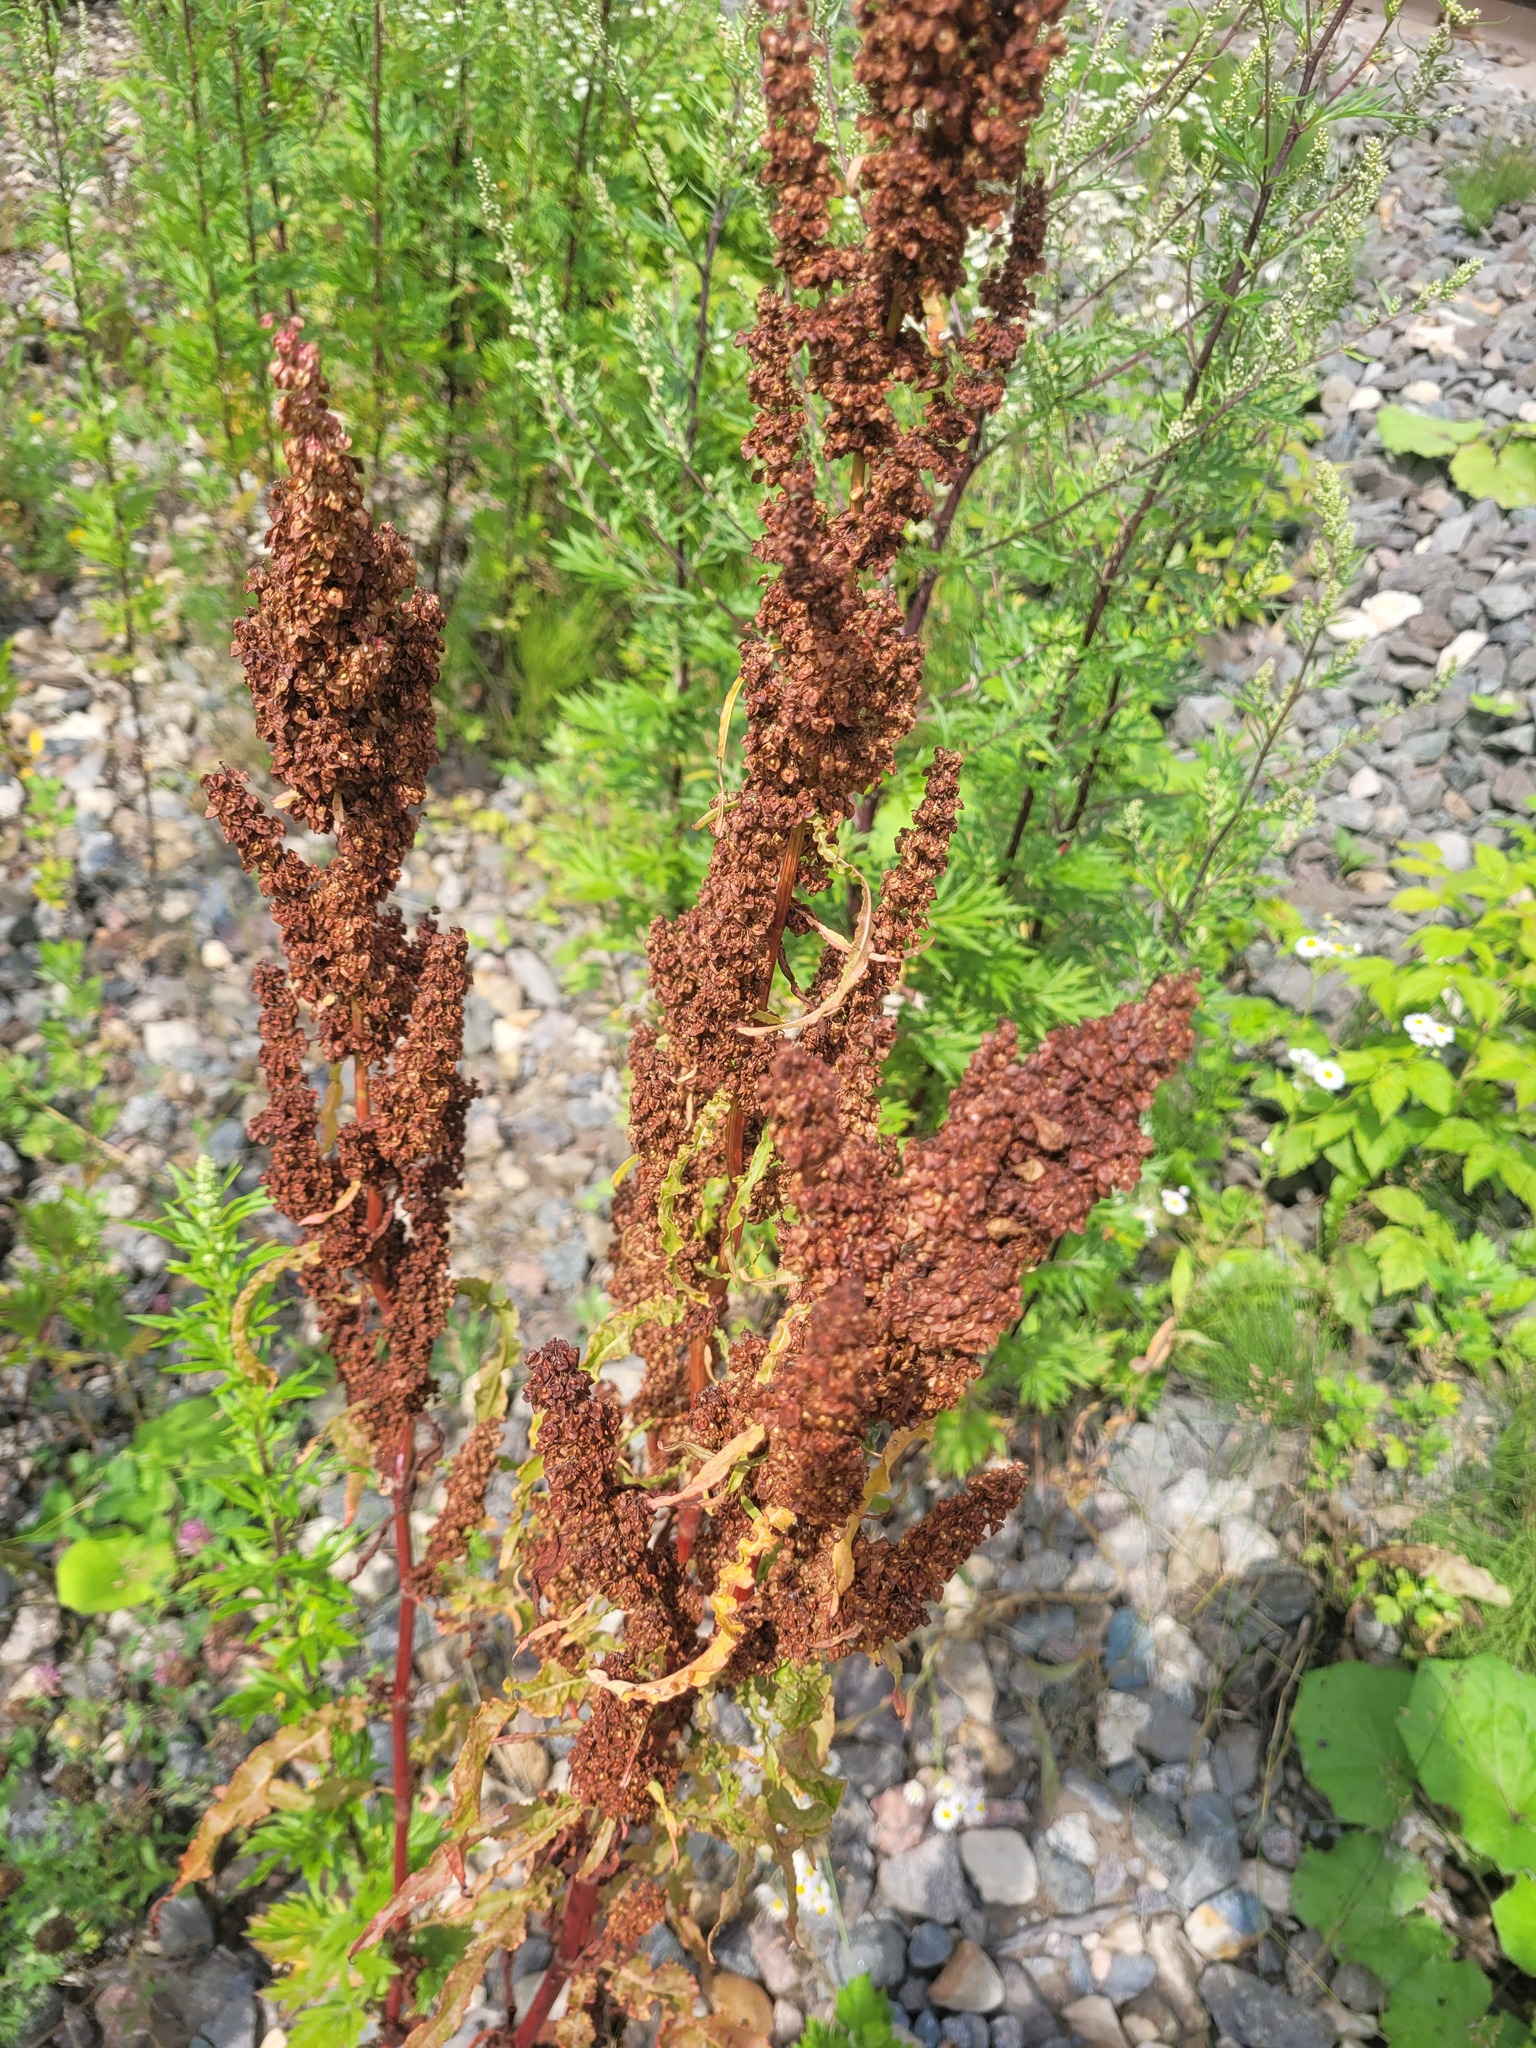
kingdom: Plantae
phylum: Tracheophyta
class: Magnoliopsida
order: Caryophyllales
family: Polygonaceae
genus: Rumex
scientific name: Rumex crispus
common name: Curled dock
